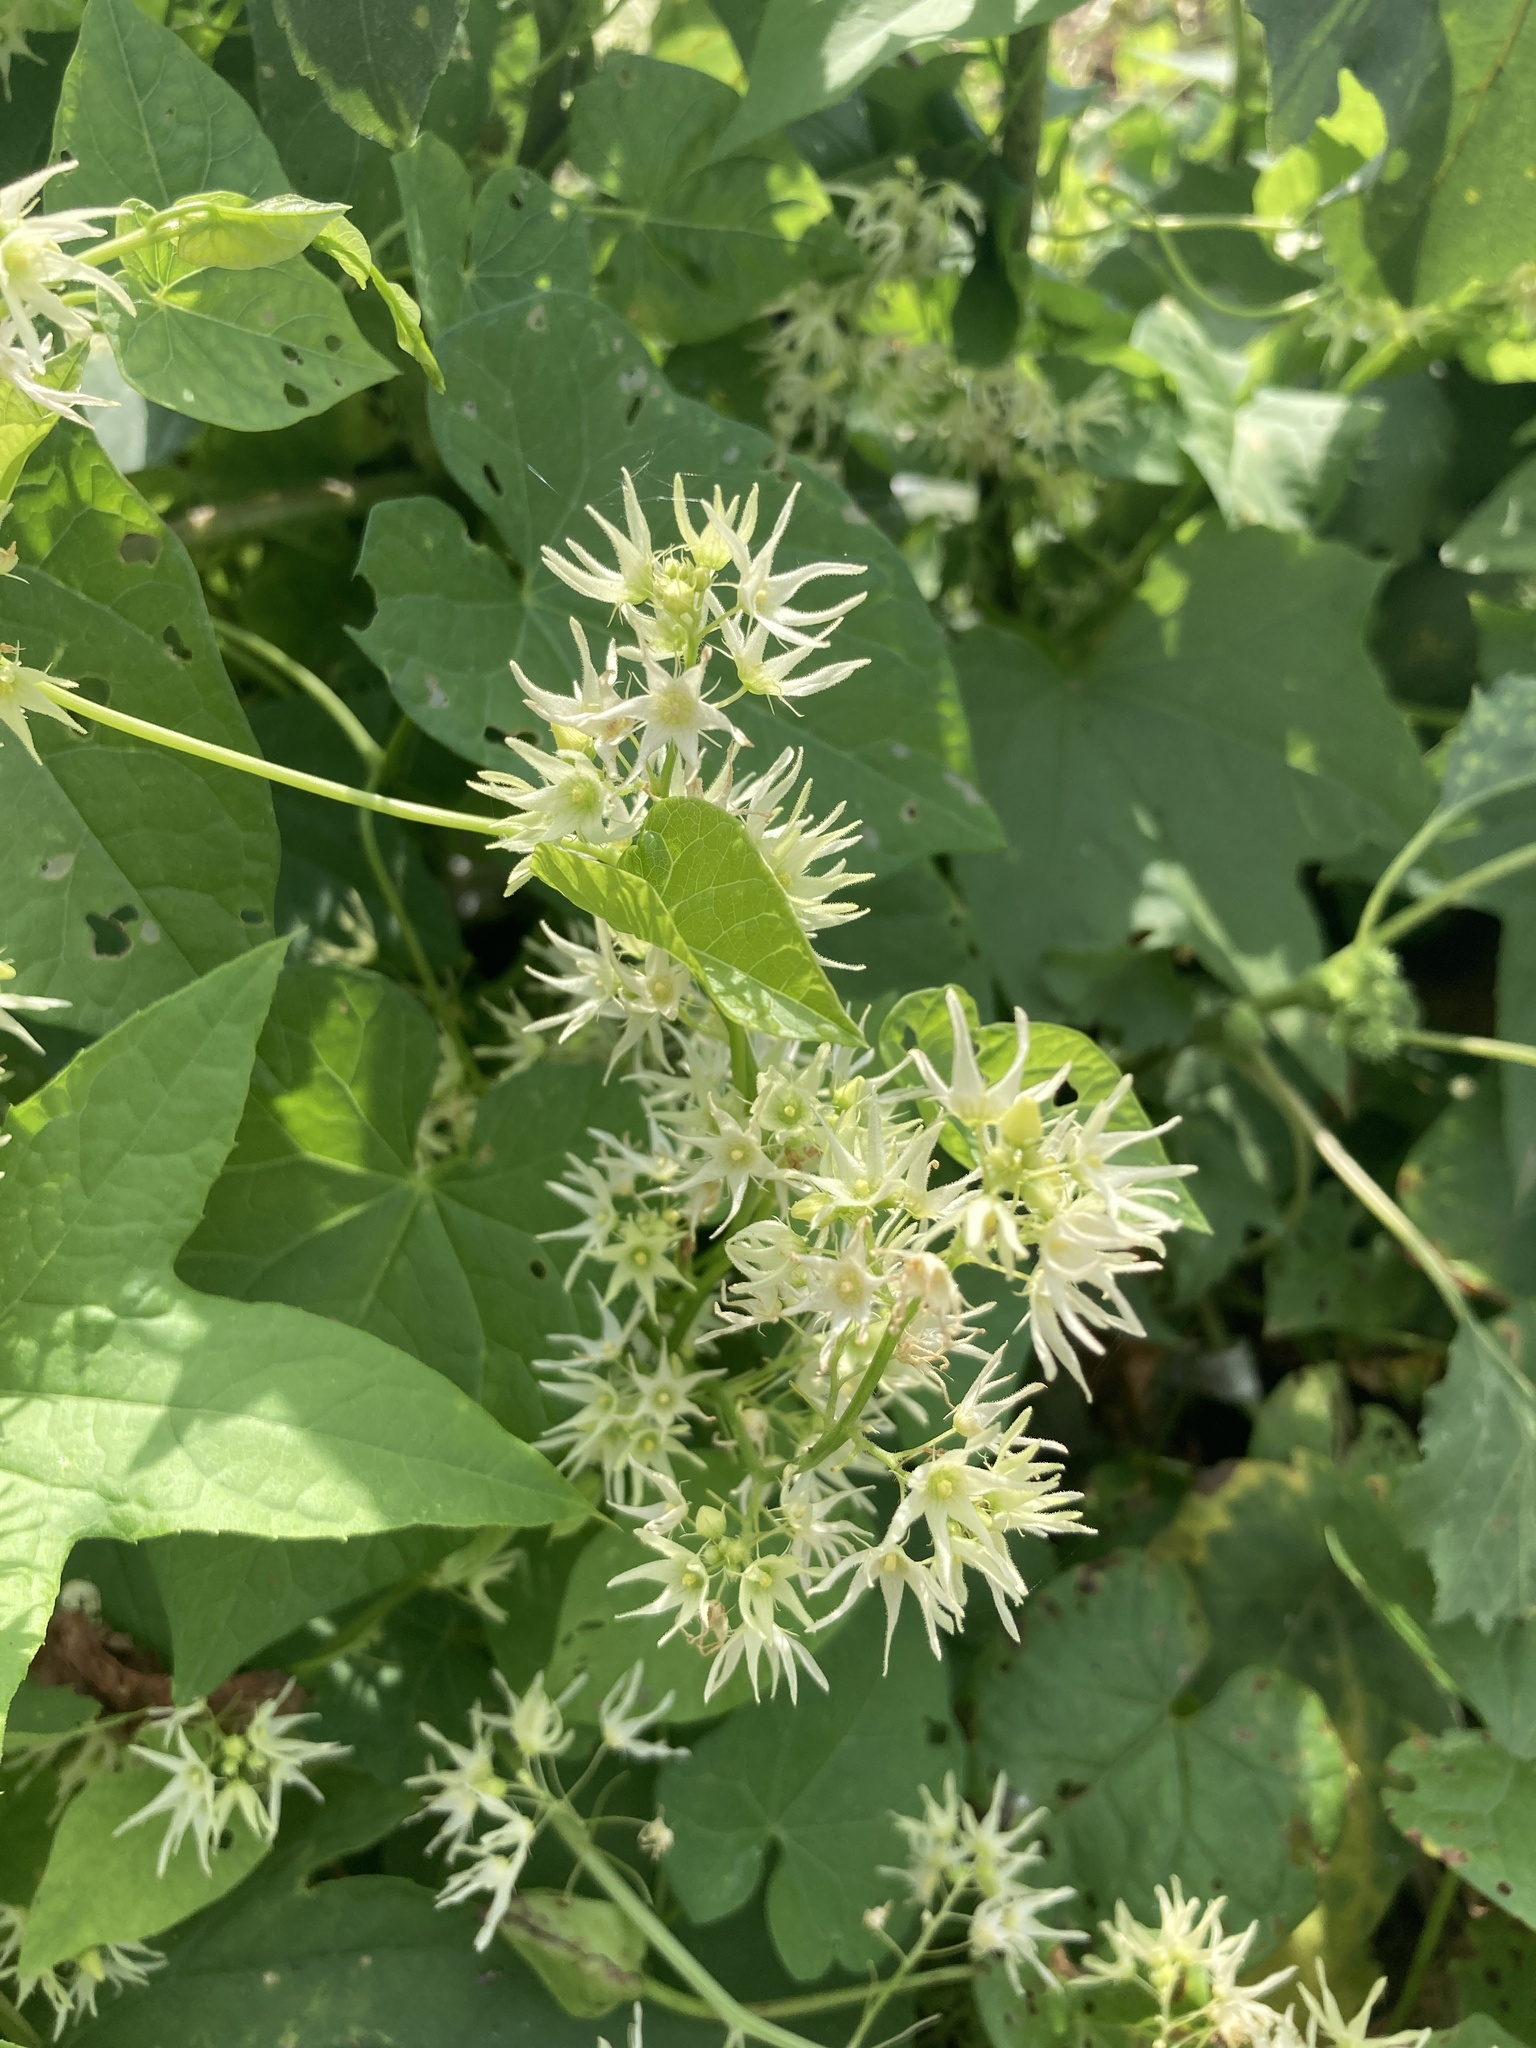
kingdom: Plantae
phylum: Tracheophyta
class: Magnoliopsida
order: Cucurbitales
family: Cucurbitaceae
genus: Echinocystis
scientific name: Echinocystis lobata
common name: Wild cucumber
